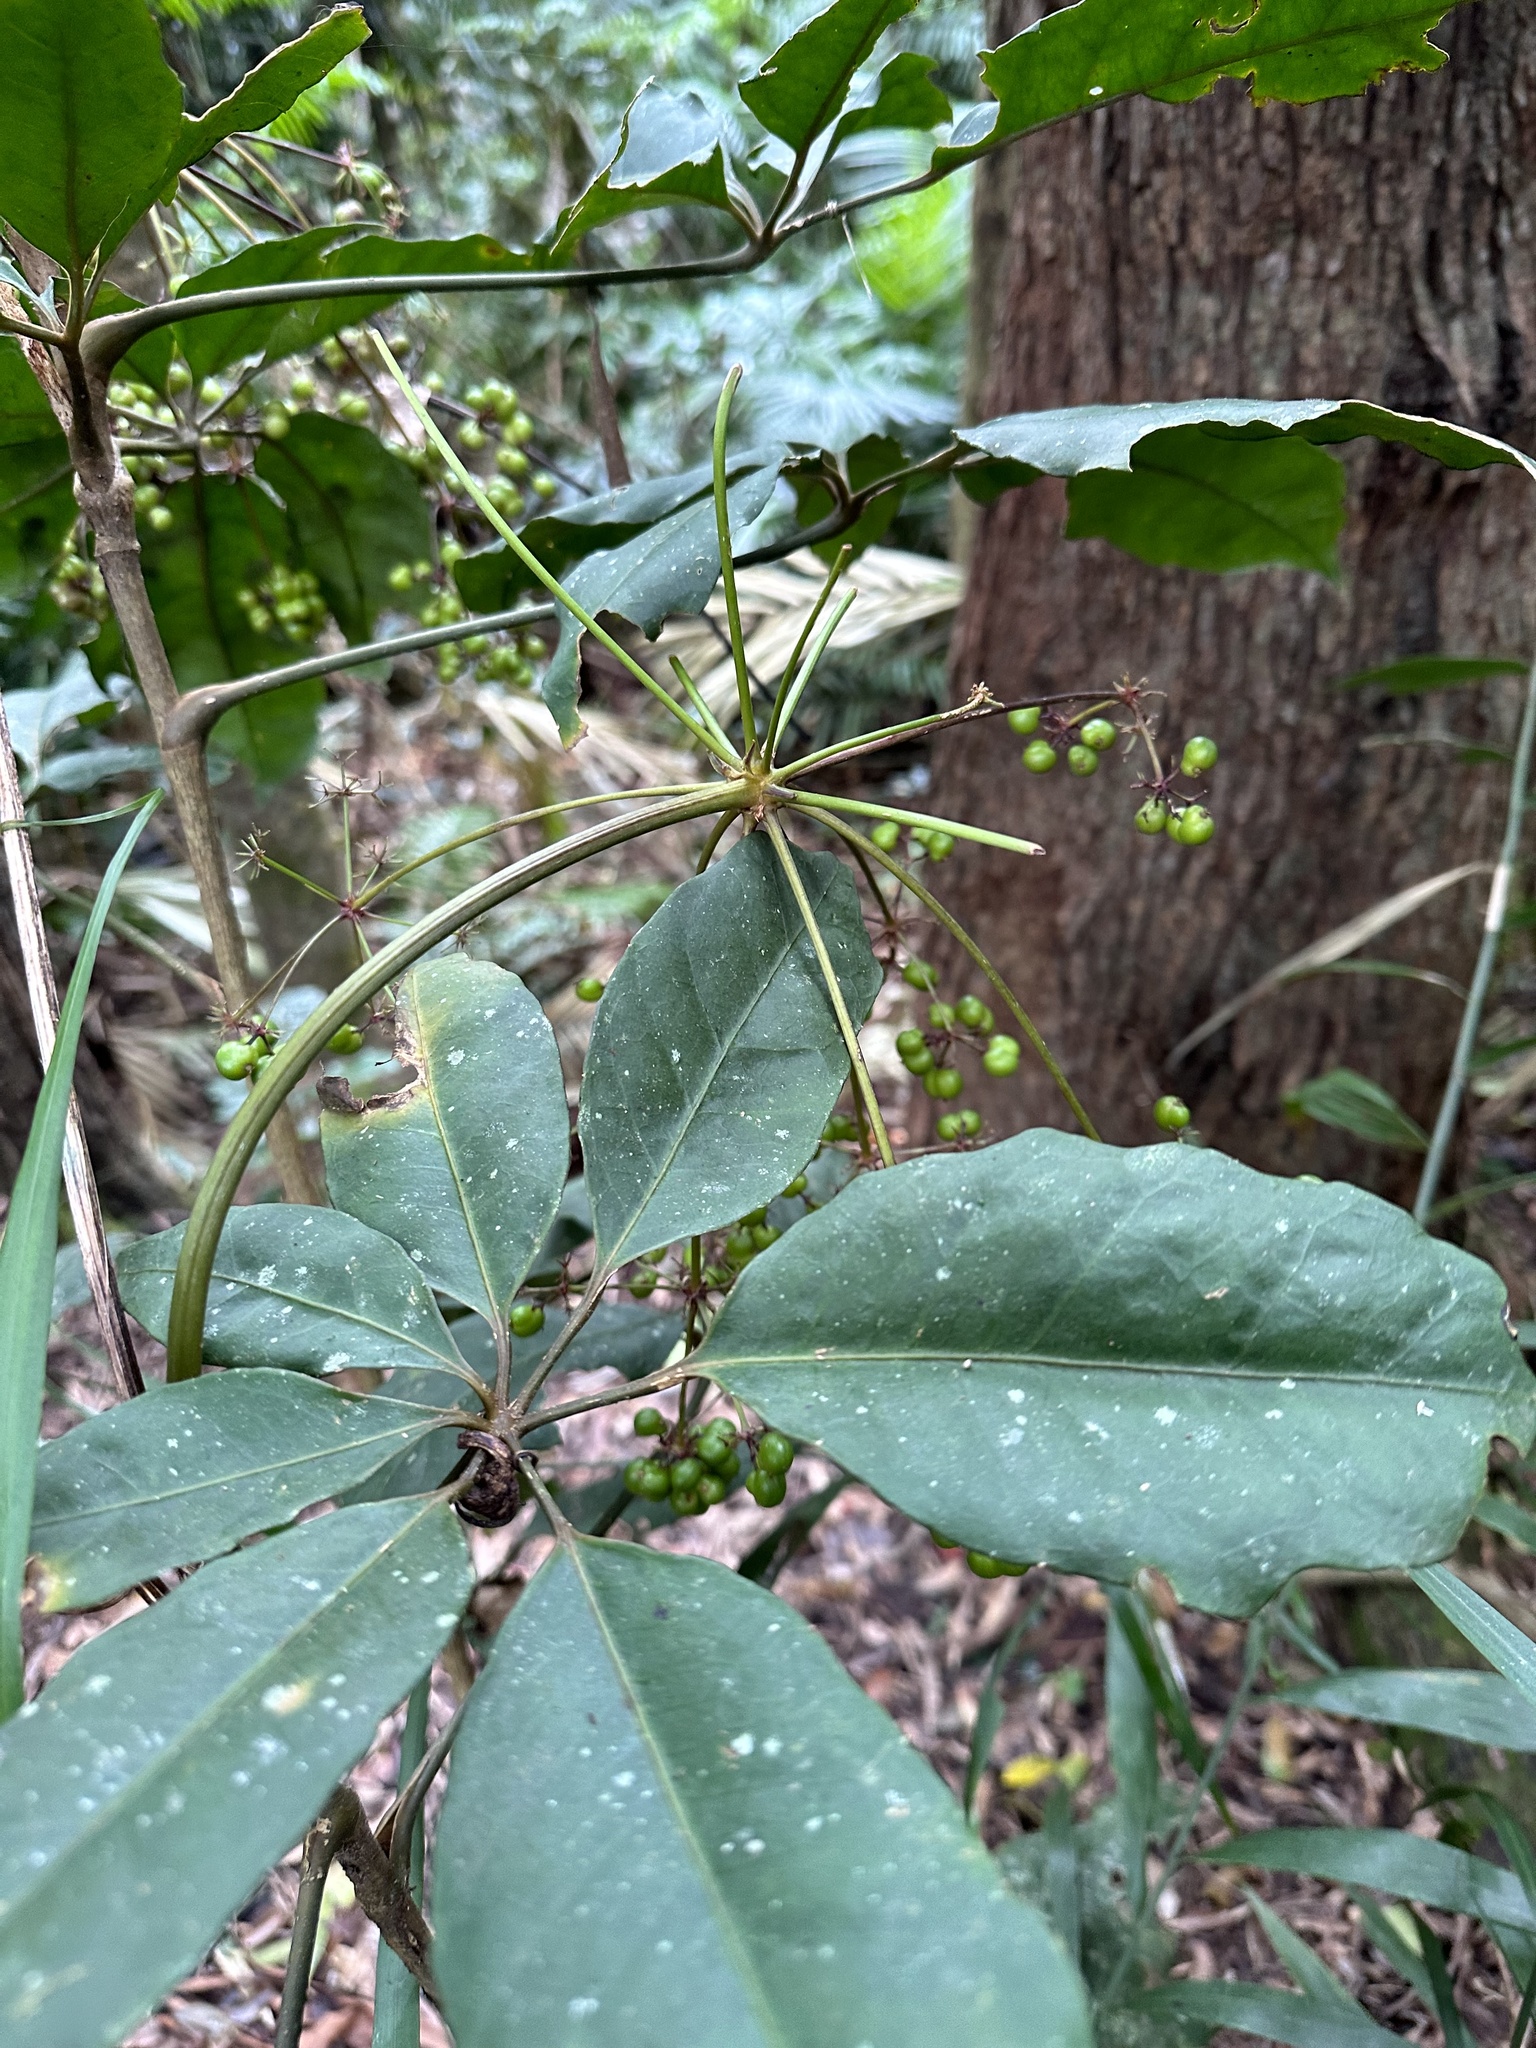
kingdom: Plantae
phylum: Tracheophyta
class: Magnoliopsida
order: Apiales
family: Apiaceae
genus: Mackinlaya
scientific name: Mackinlaya confusa
